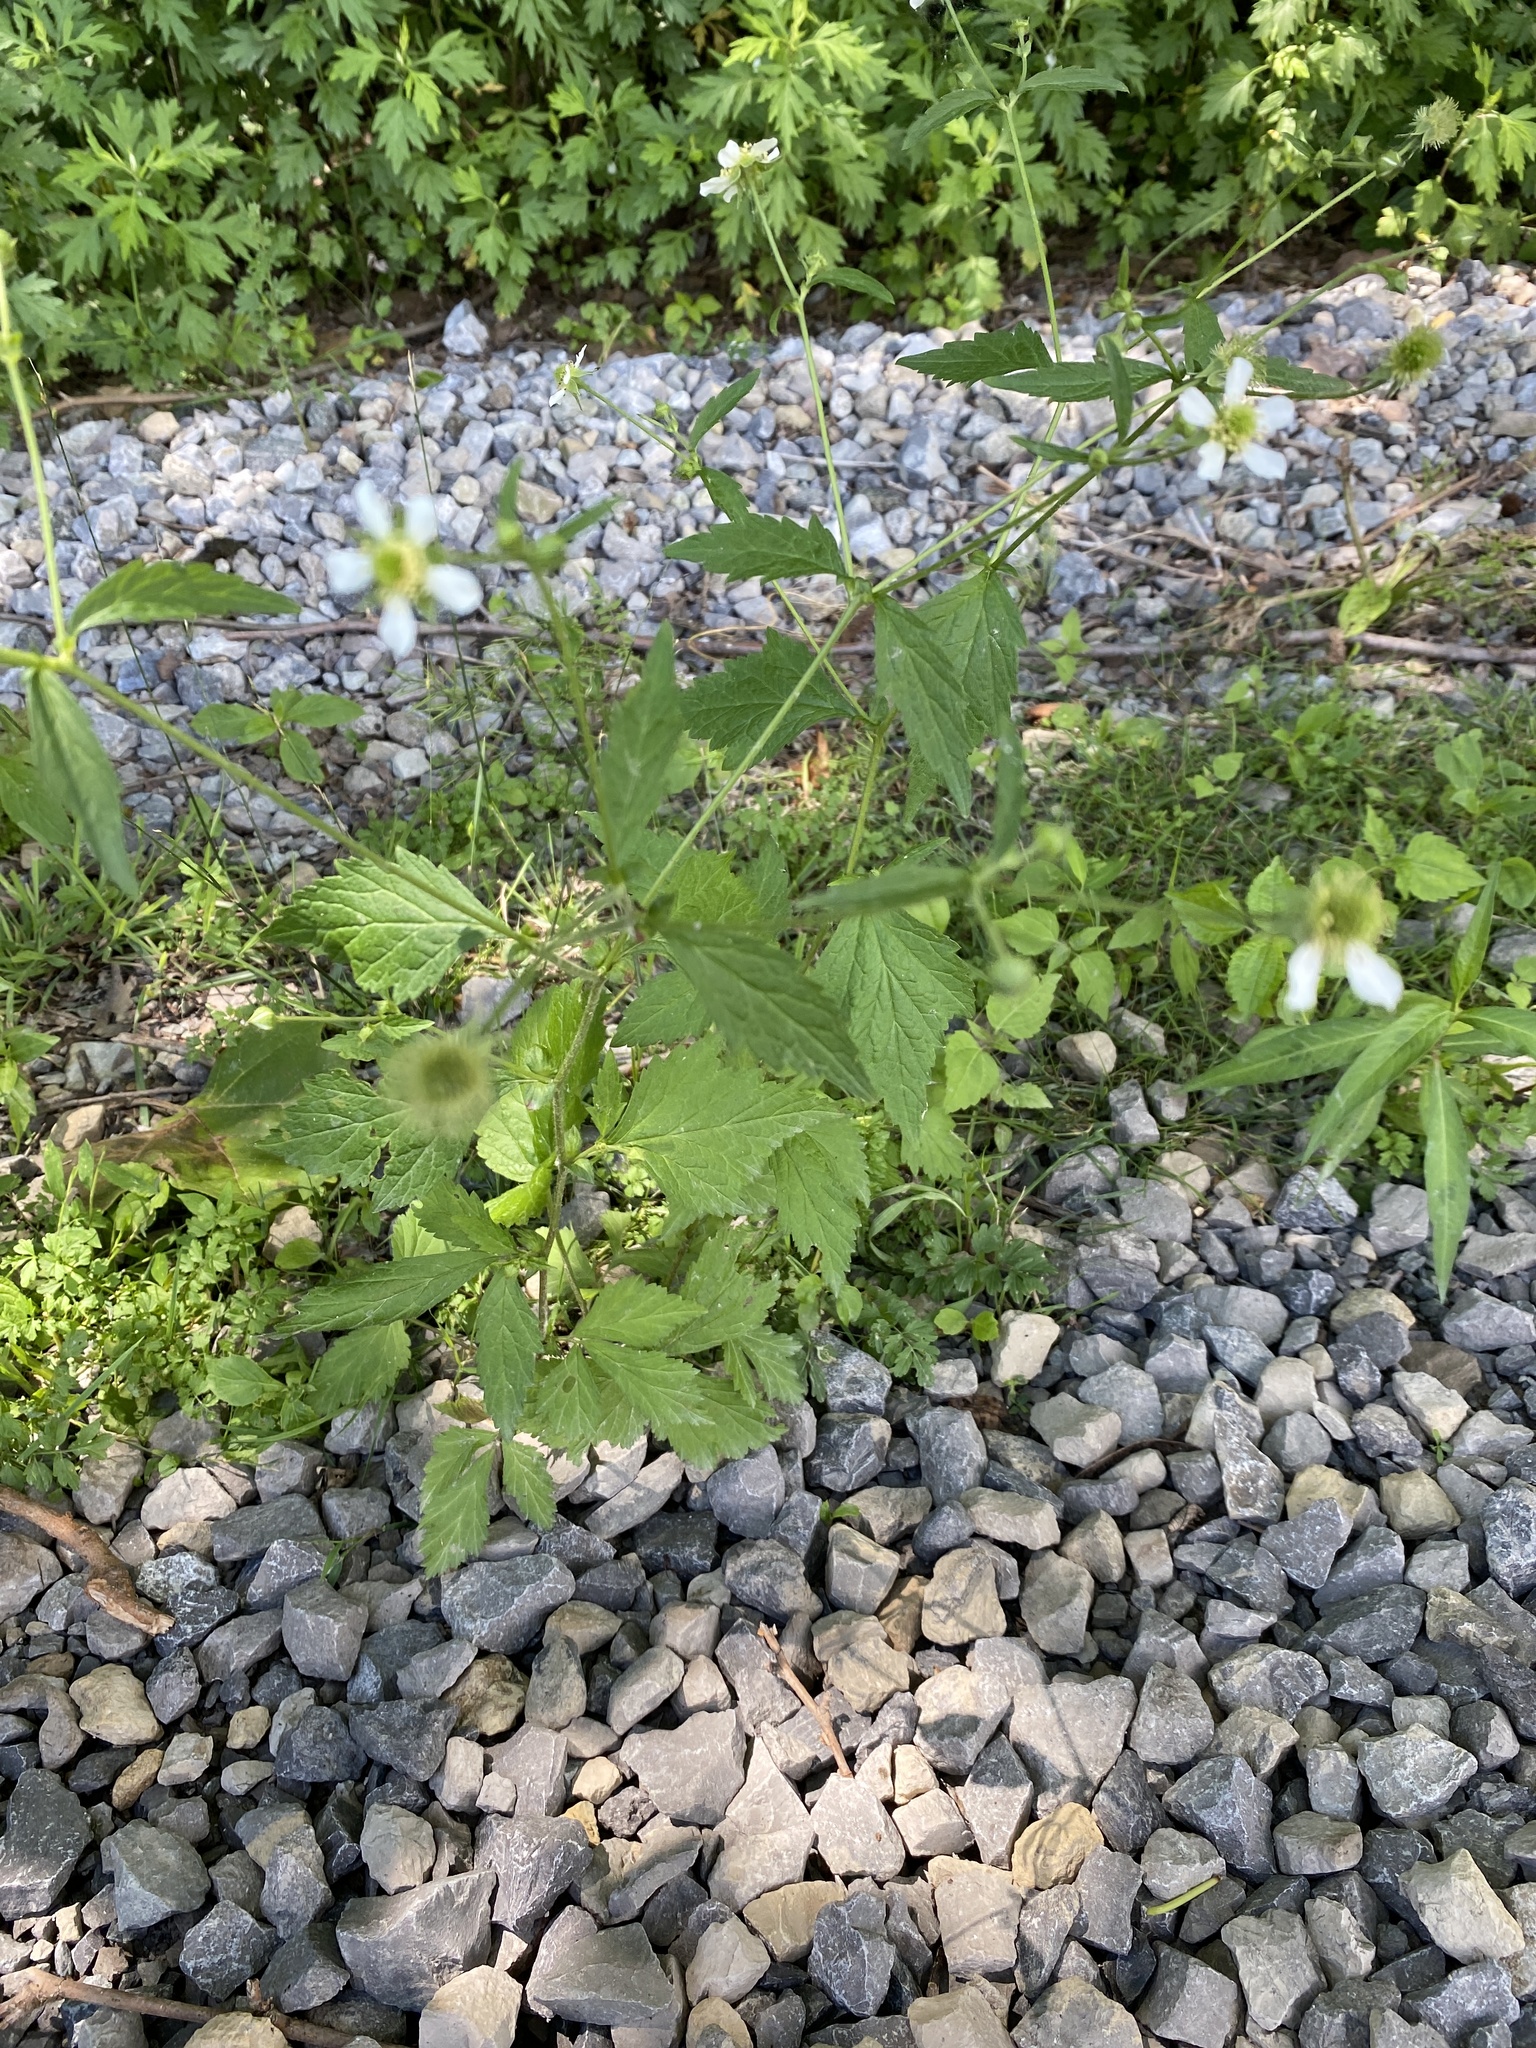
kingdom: Plantae
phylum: Tracheophyta
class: Magnoliopsida
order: Rosales
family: Rosaceae
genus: Geum
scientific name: Geum canadense
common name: White avens
